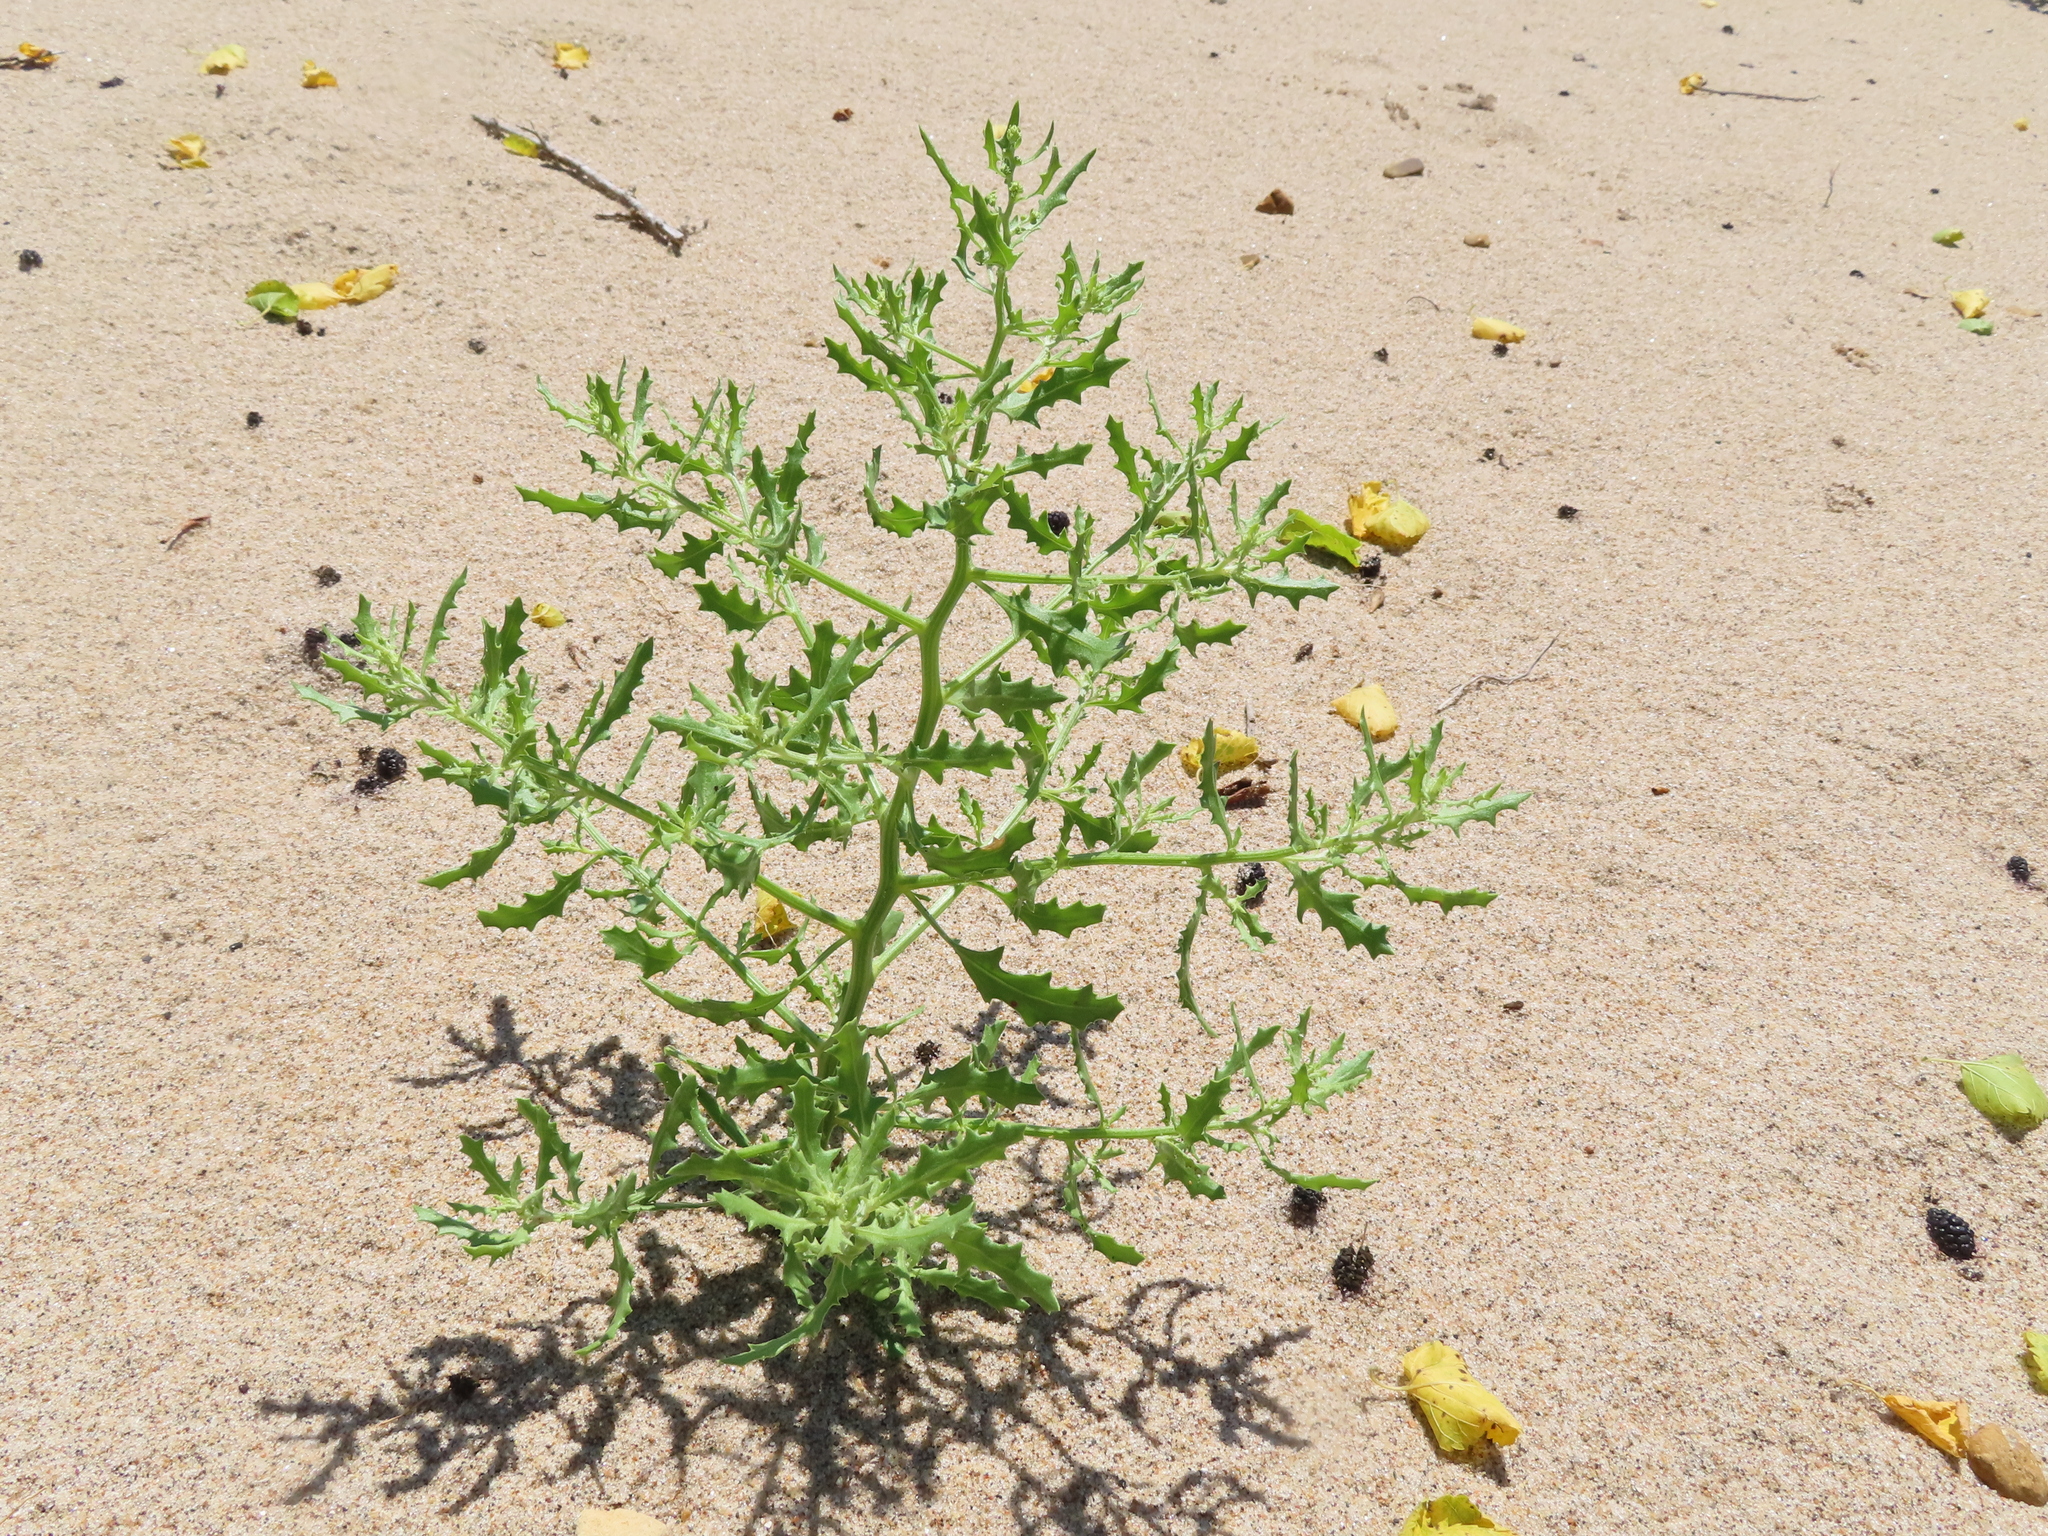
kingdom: Plantae
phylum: Tracheophyta
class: Magnoliopsida
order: Caryophyllales
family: Amaranthaceae
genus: Dysphania
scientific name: Dysphania atriplicifolia
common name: Plains tumbleweed
